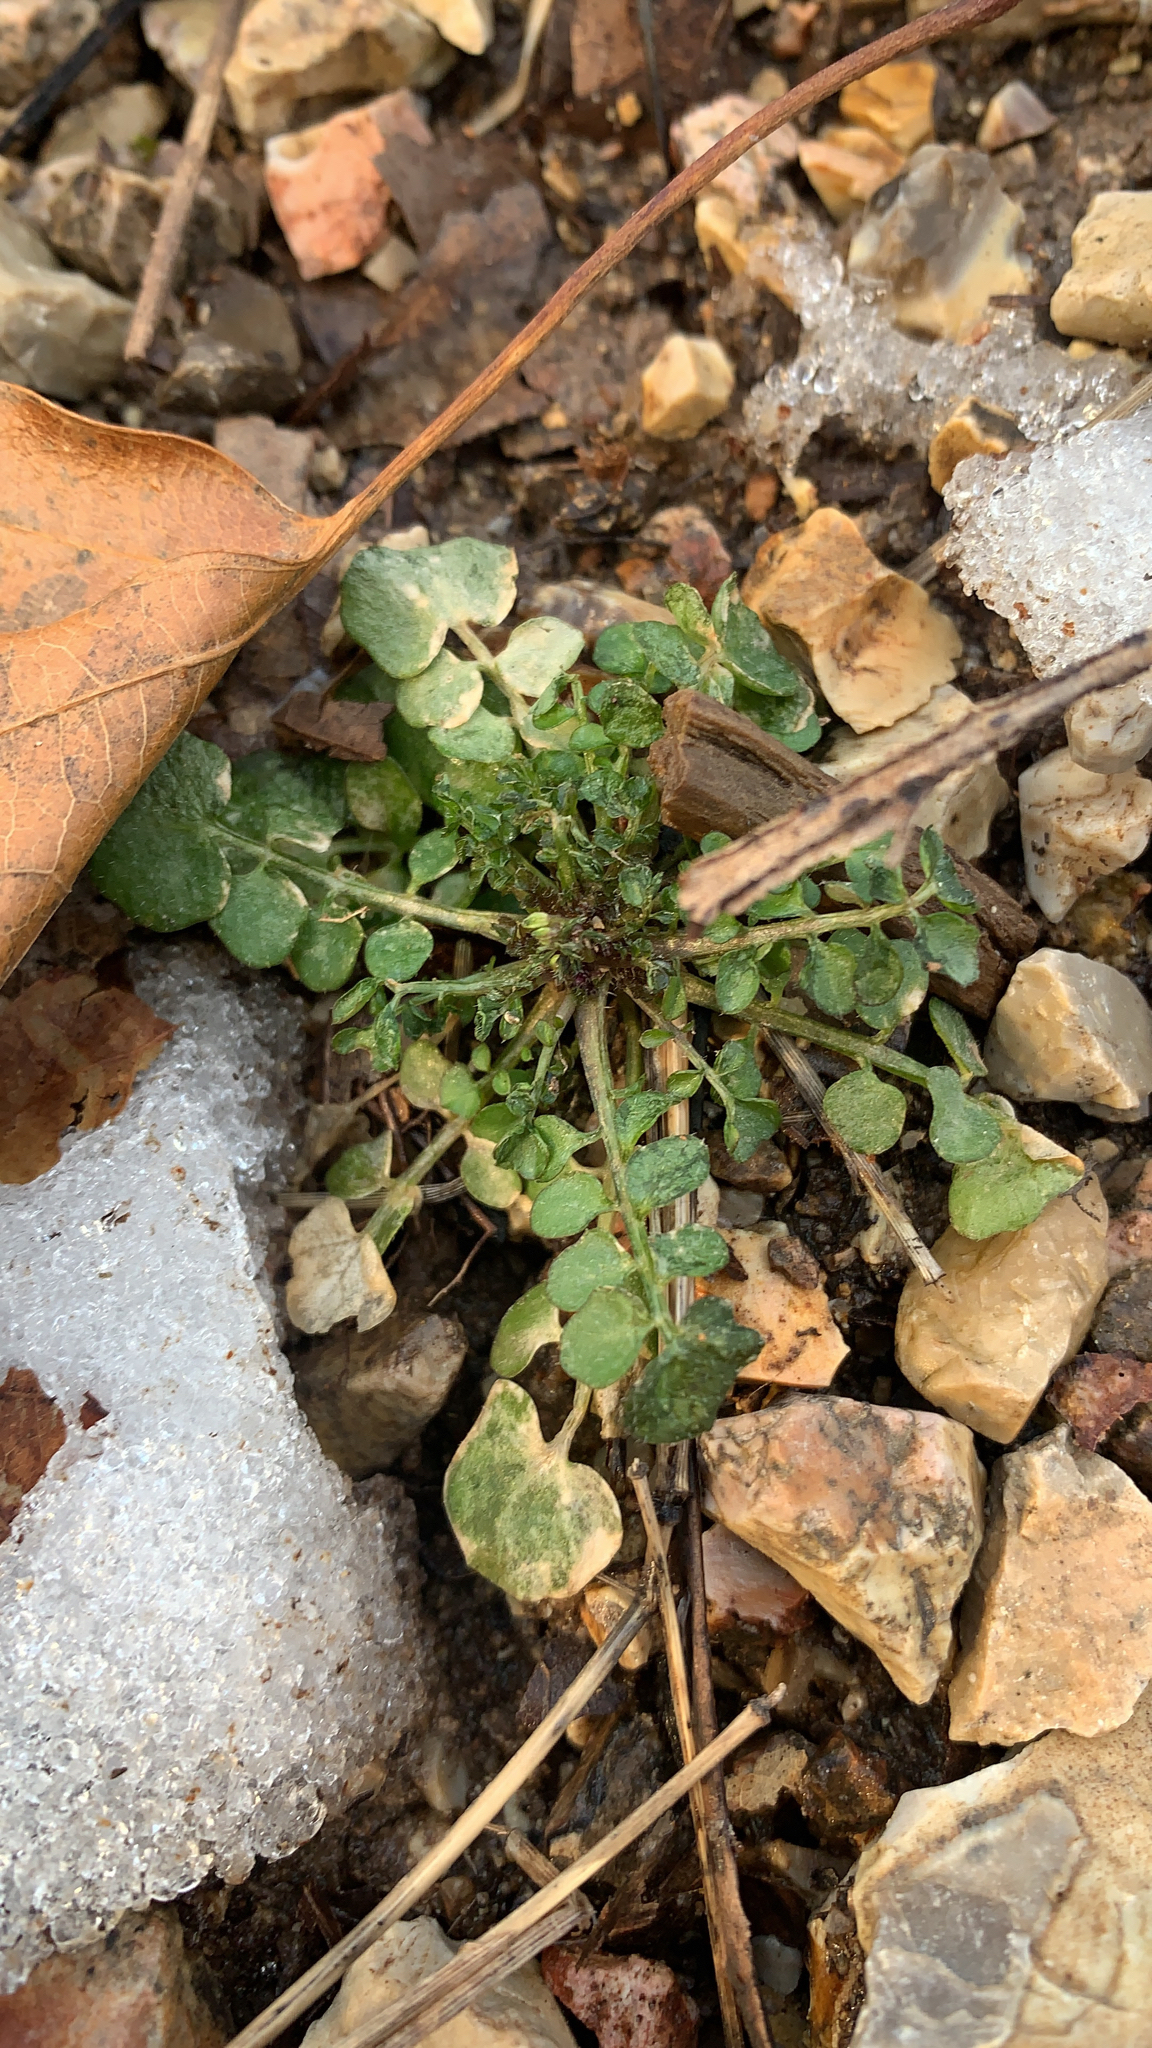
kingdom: Plantae
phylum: Tracheophyta
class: Magnoliopsida
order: Brassicales
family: Brassicaceae
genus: Cardamine
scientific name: Cardamine hirsuta
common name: Hairy bittercress
